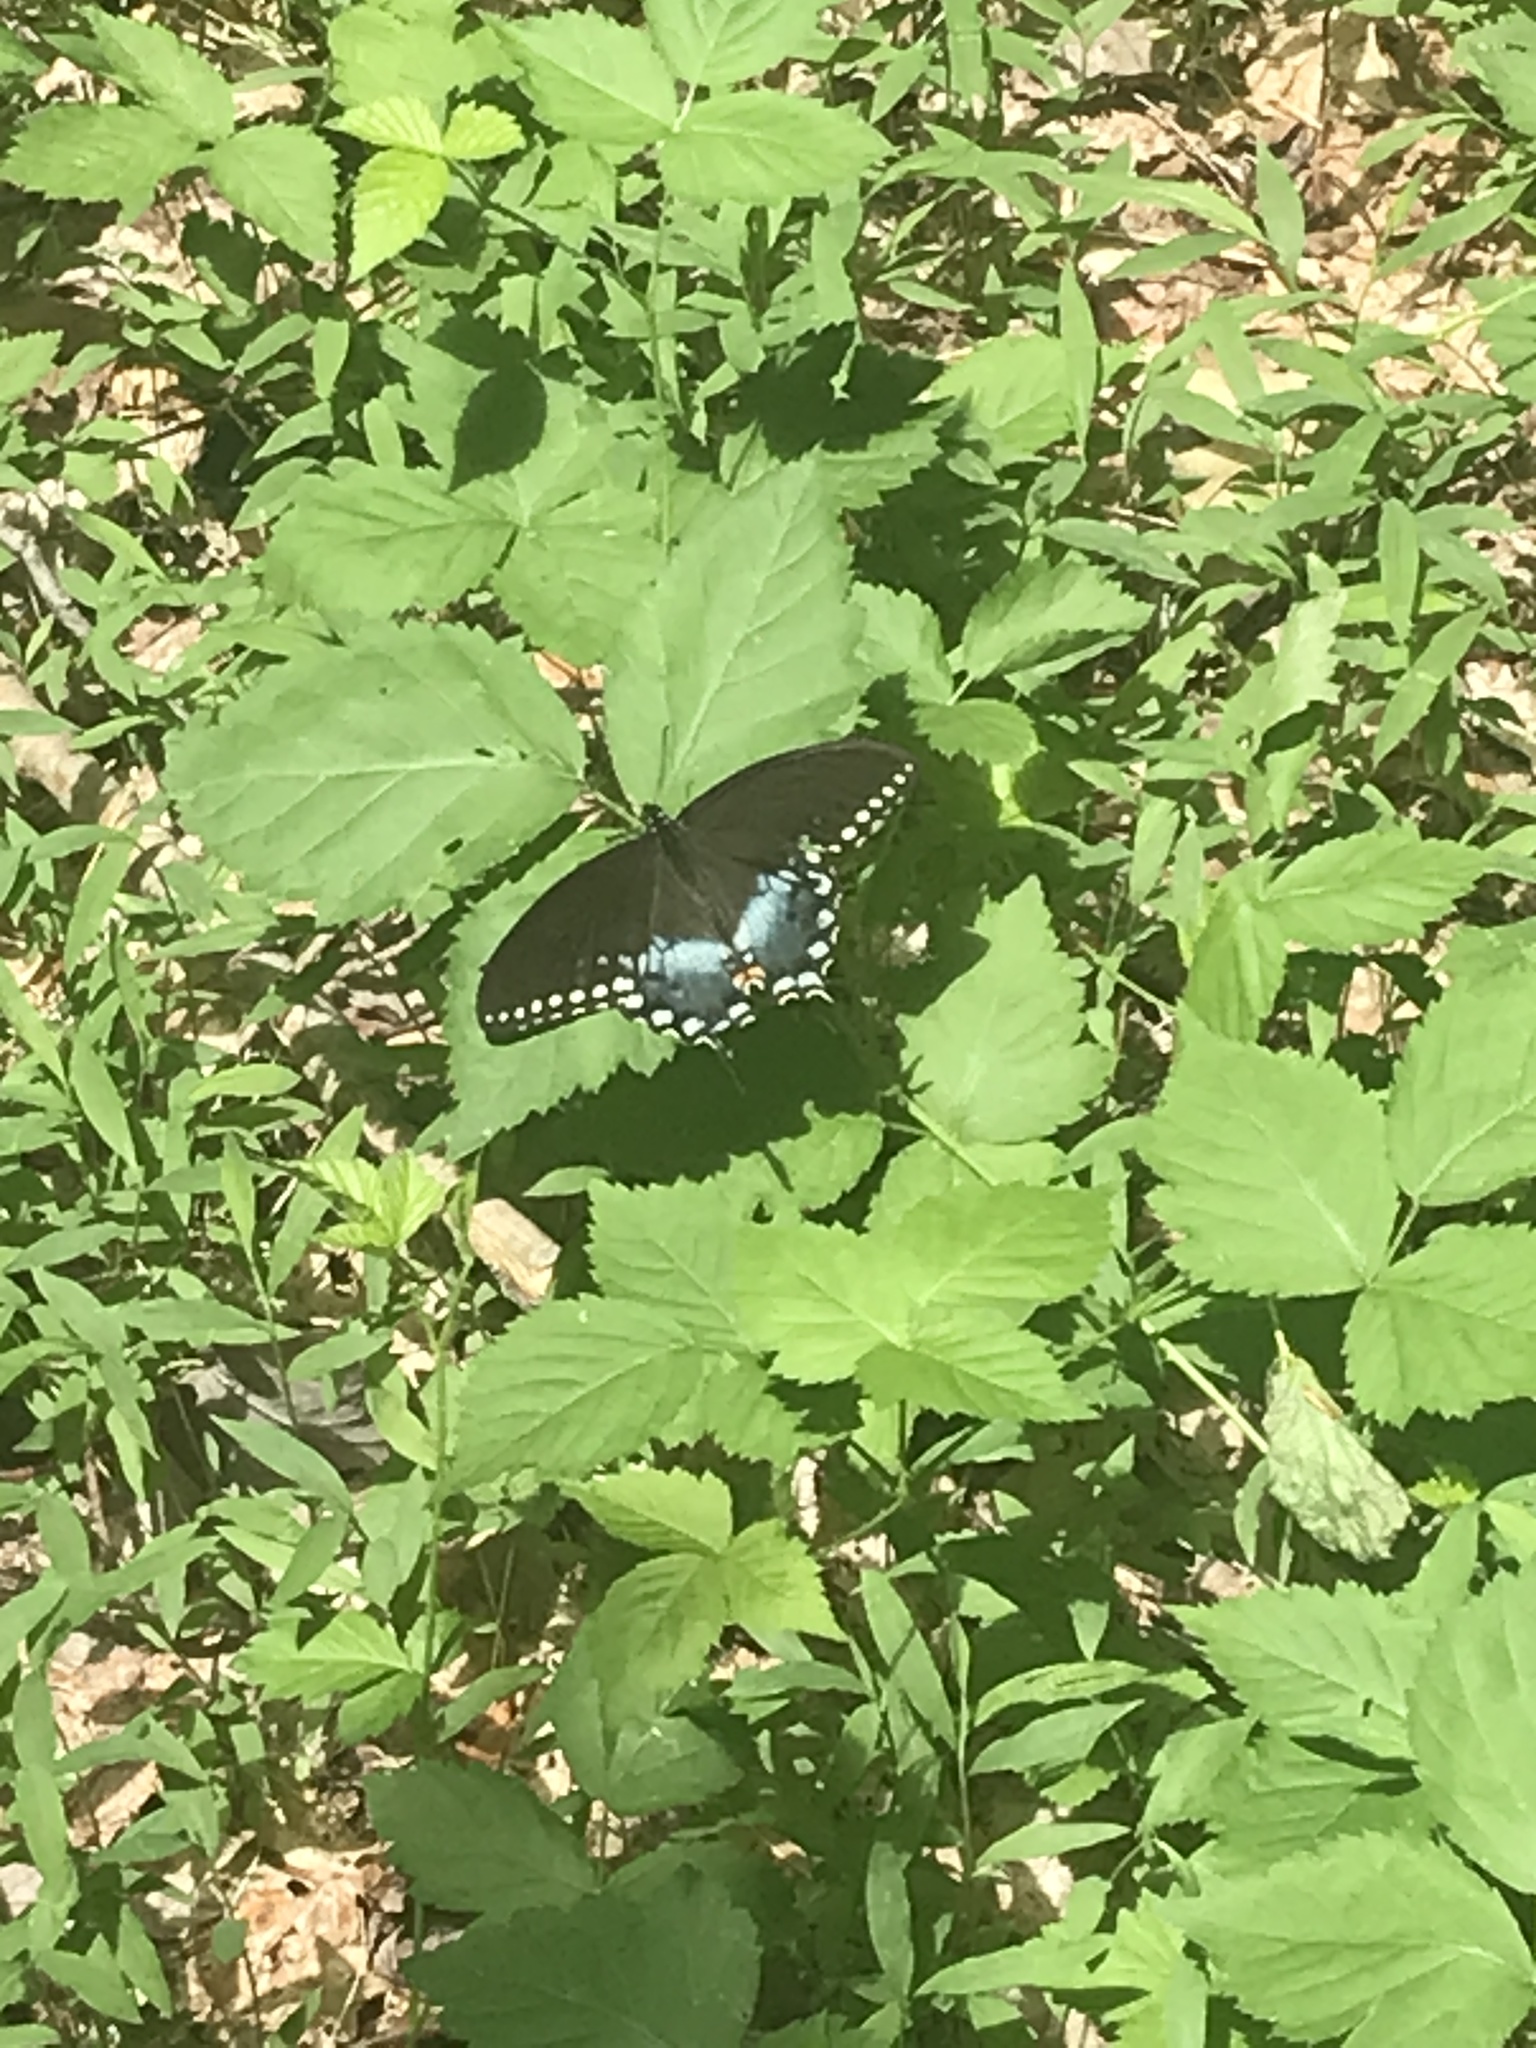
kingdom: Animalia
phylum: Arthropoda
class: Insecta
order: Lepidoptera
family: Papilionidae
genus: Papilio
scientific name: Papilio troilus
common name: Spicebush swallowtail
